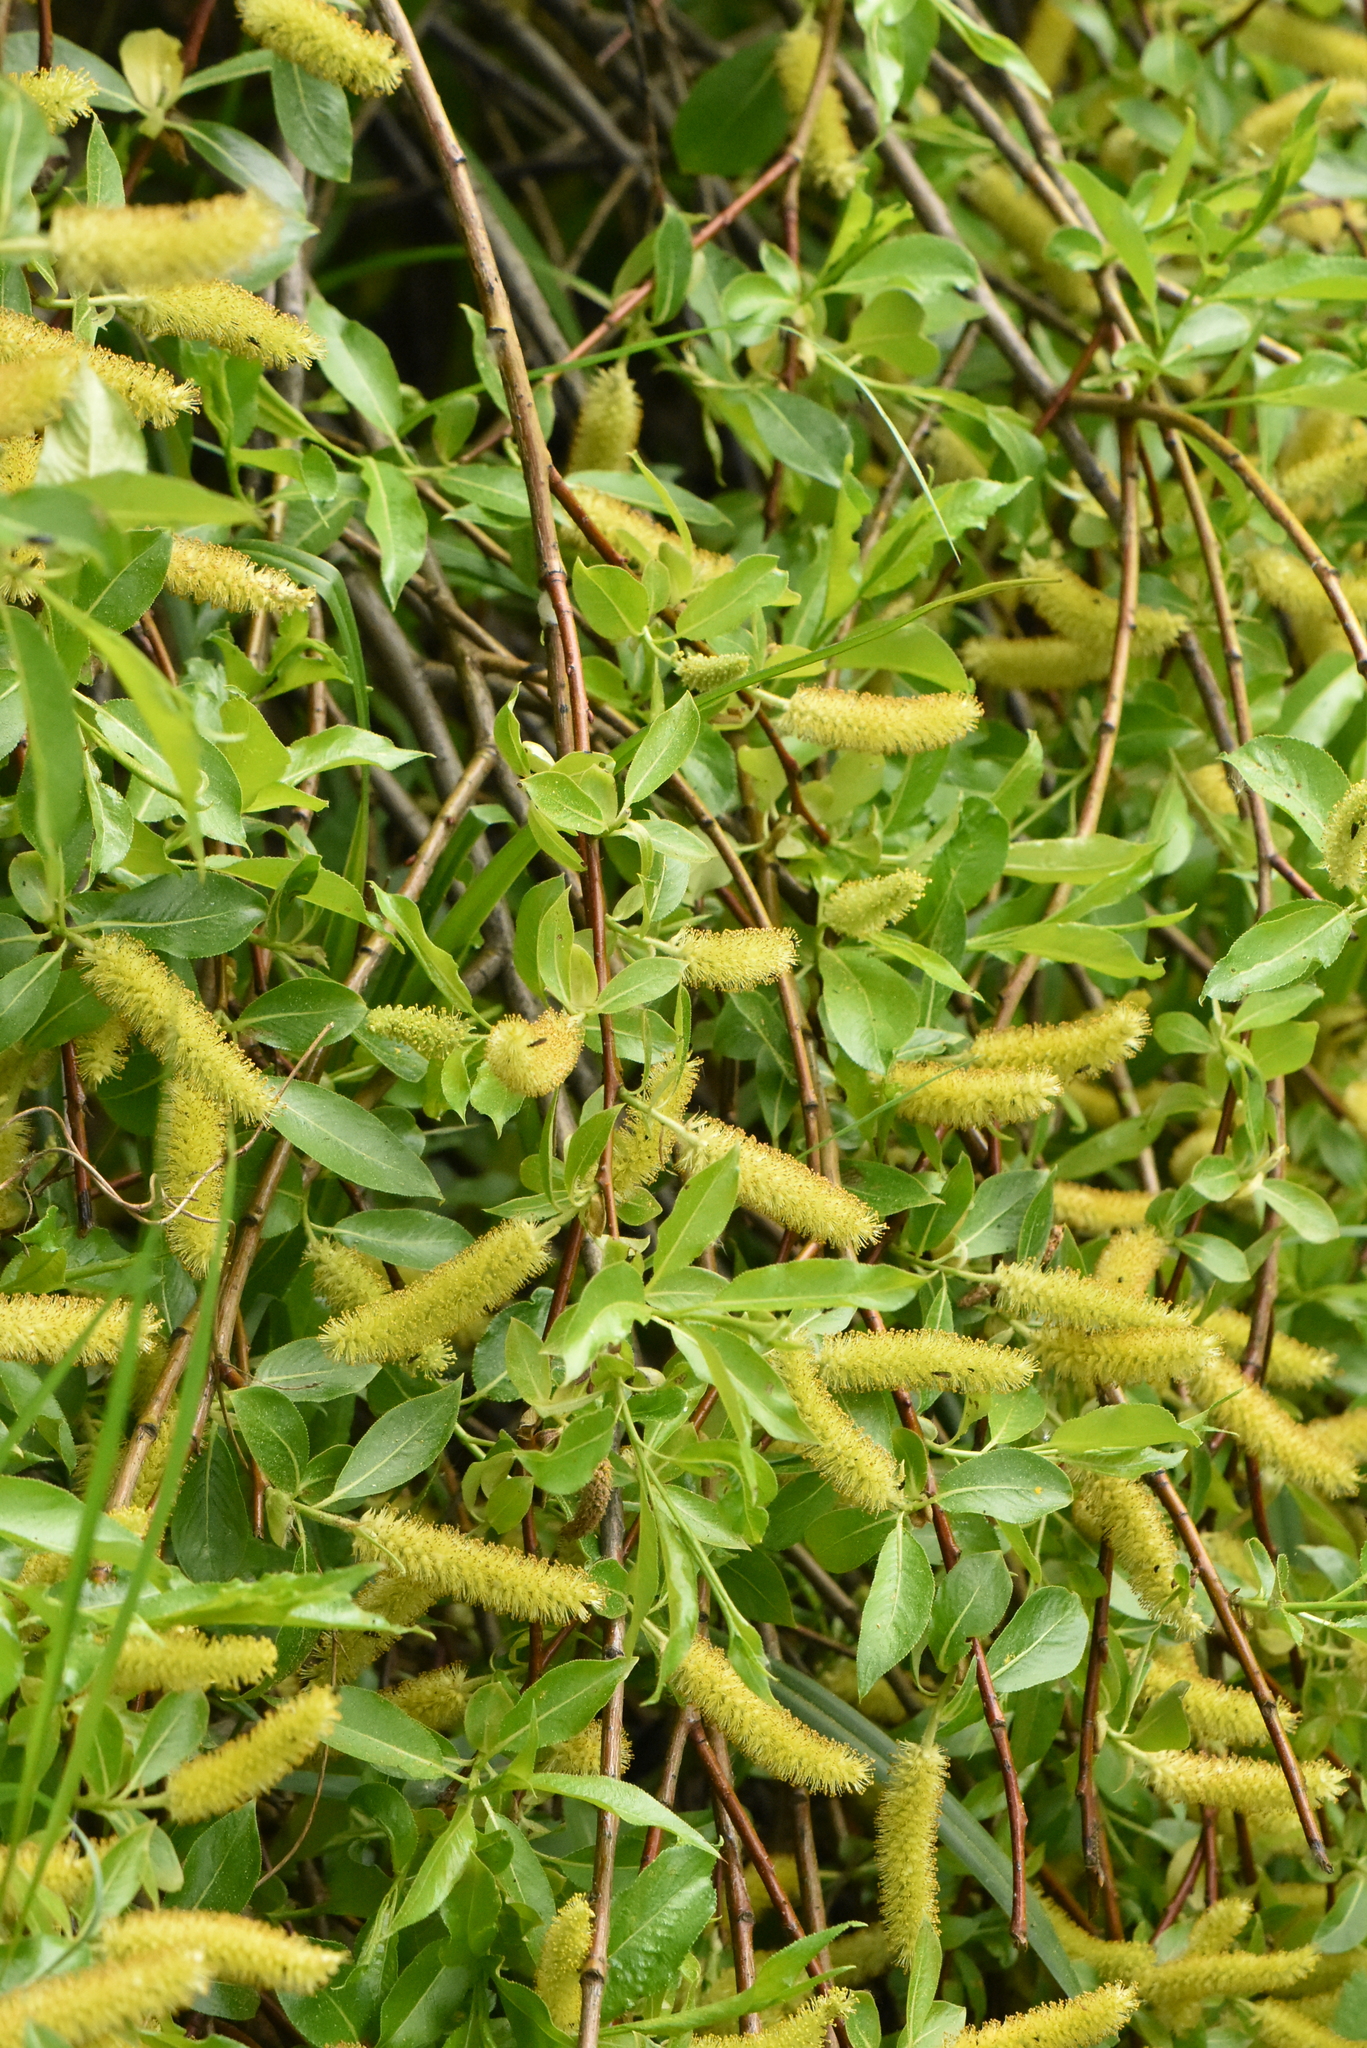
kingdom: Plantae
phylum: Tracheophyta
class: Magnoliopsida
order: Malpighiales
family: Salicaceae
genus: Salix
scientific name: Salix triandra
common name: Almond willow
